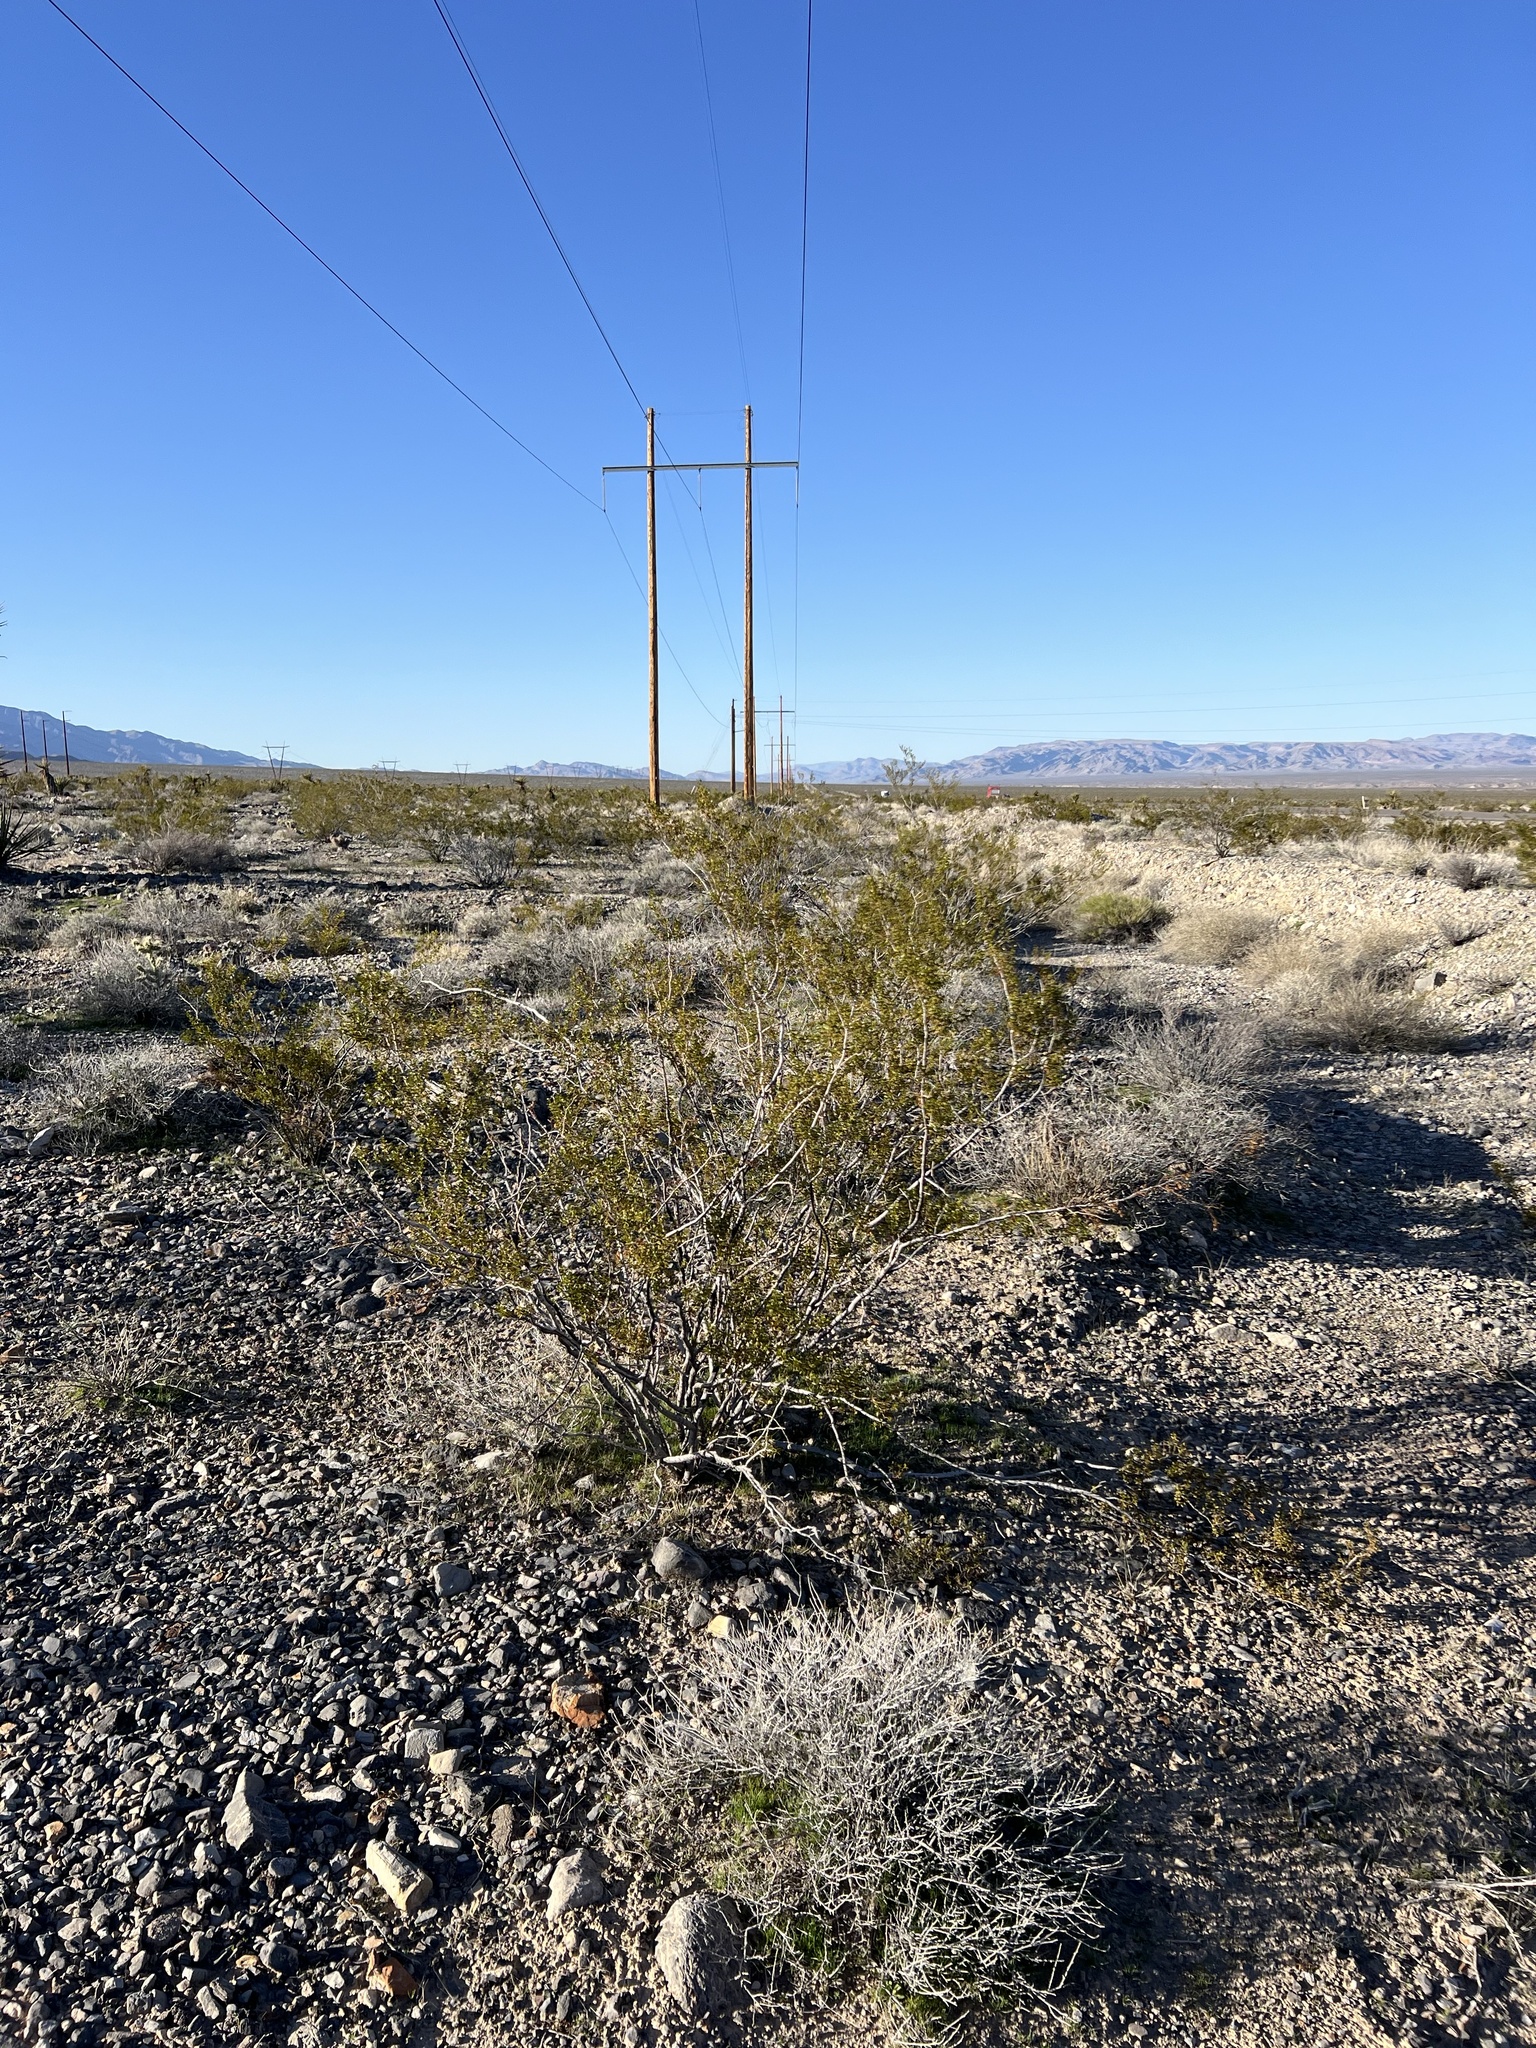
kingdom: Plantae
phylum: Tracheophyta
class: Magnoliopsida
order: Zygophyllales
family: Zygophyllaceae
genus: Larrea
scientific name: Larrea tridentata
